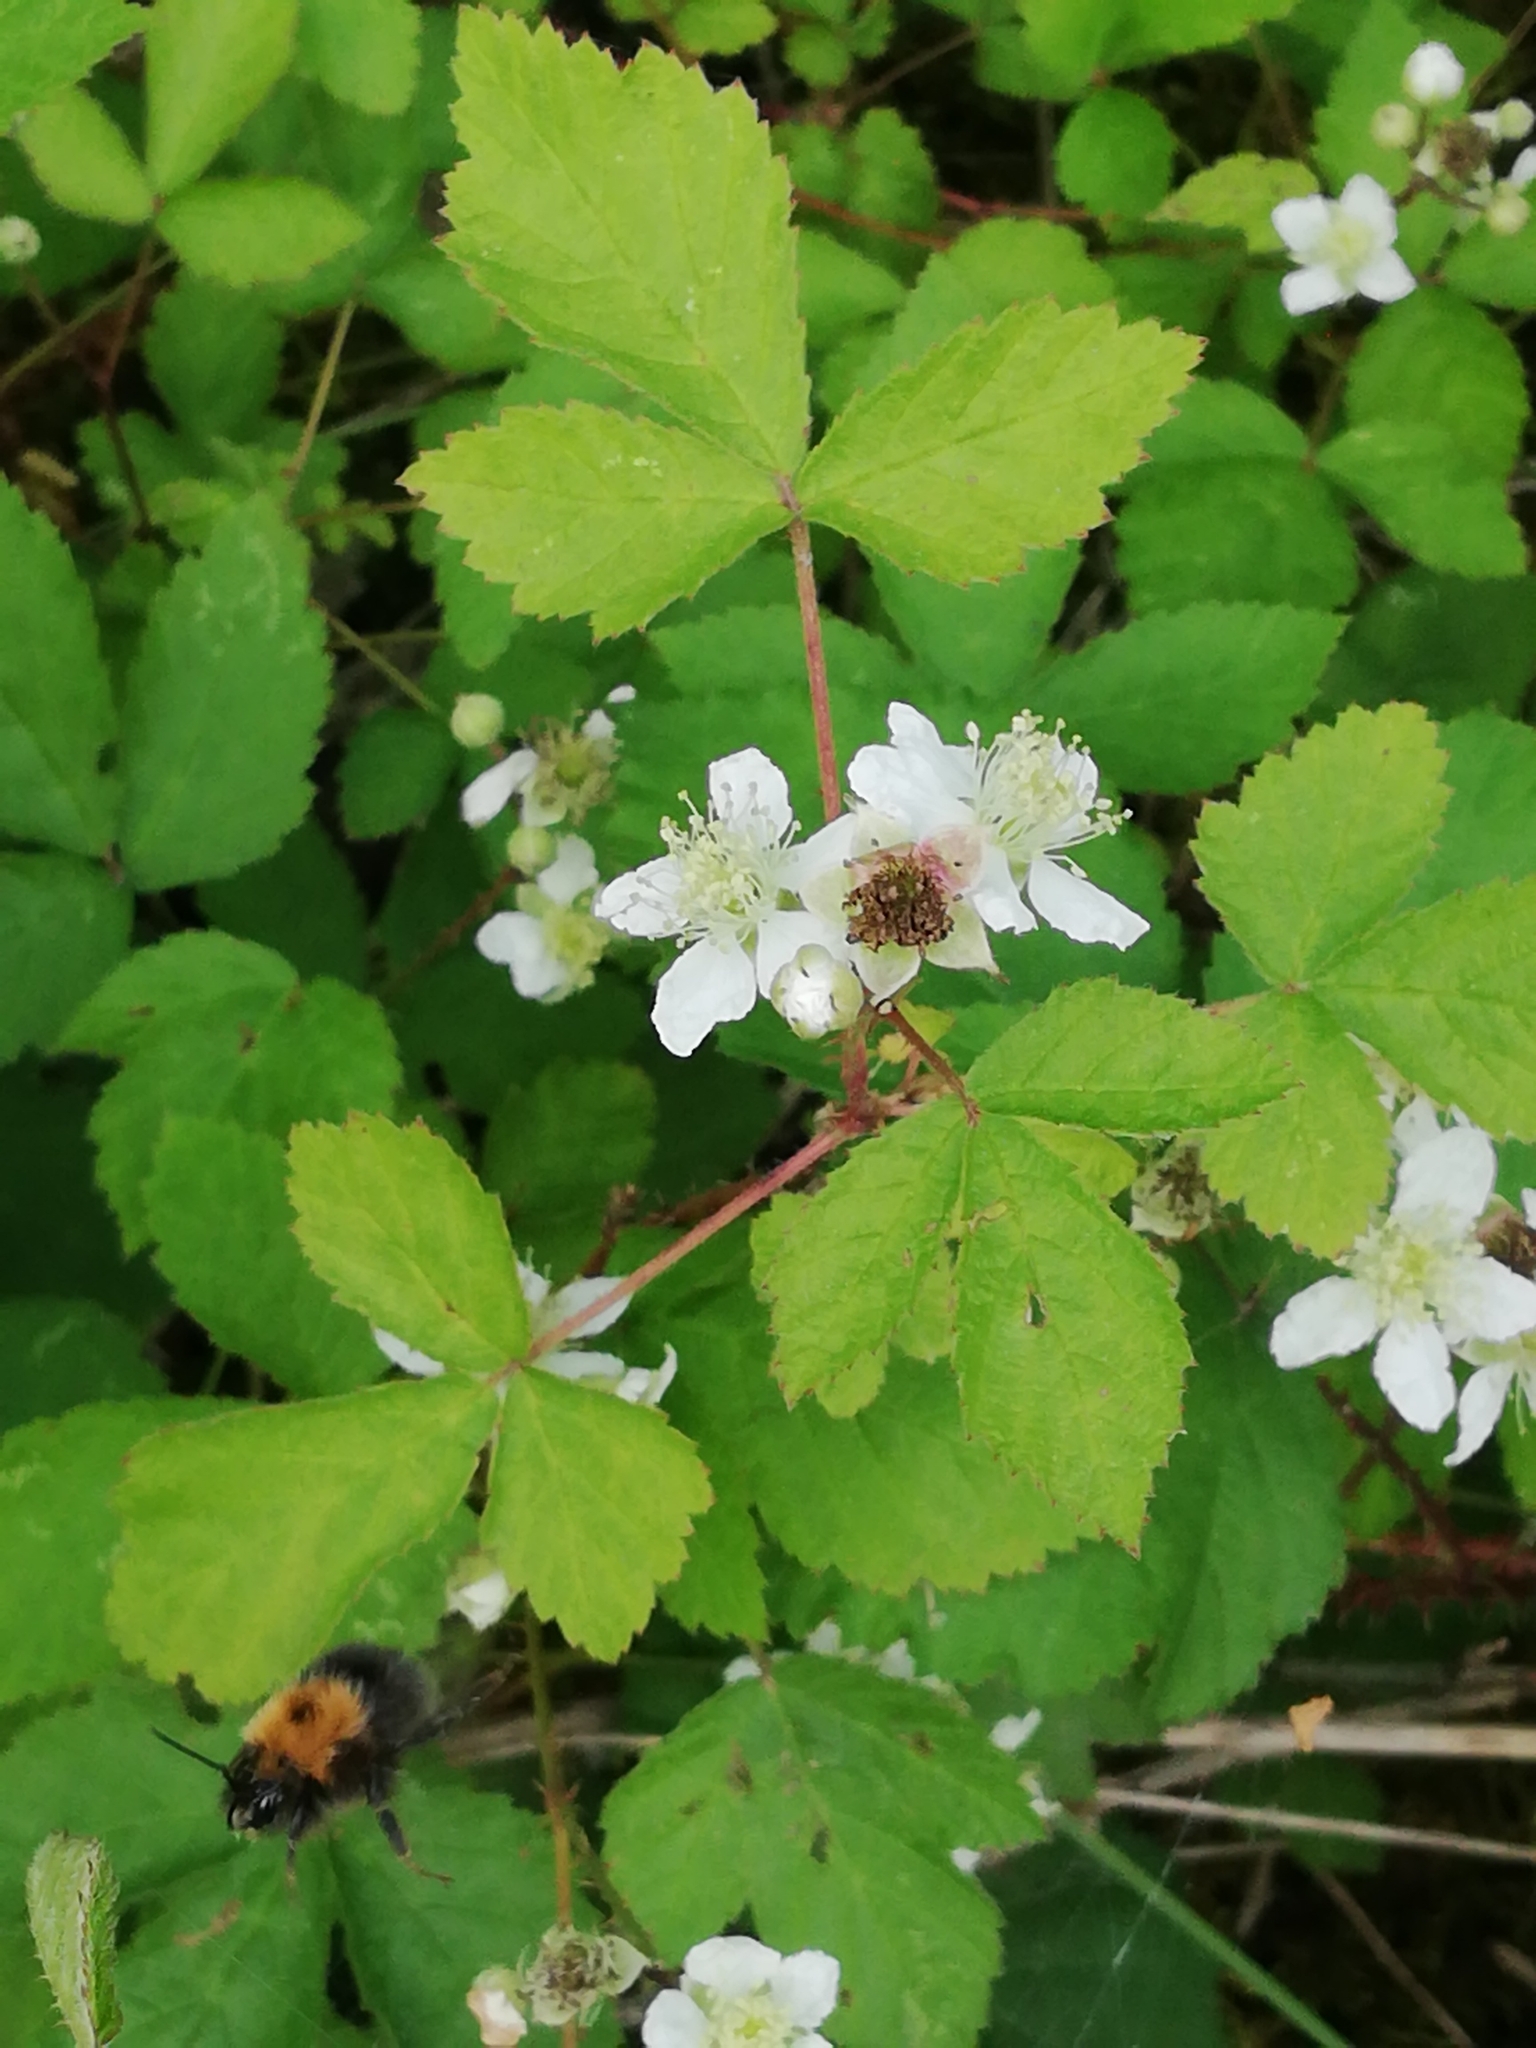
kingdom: Animalia
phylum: Arthropoda
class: Insecta
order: Hymenoptera
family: Apidae
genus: Bombus
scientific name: Bombus hypnorum
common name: New garden bumblebee
